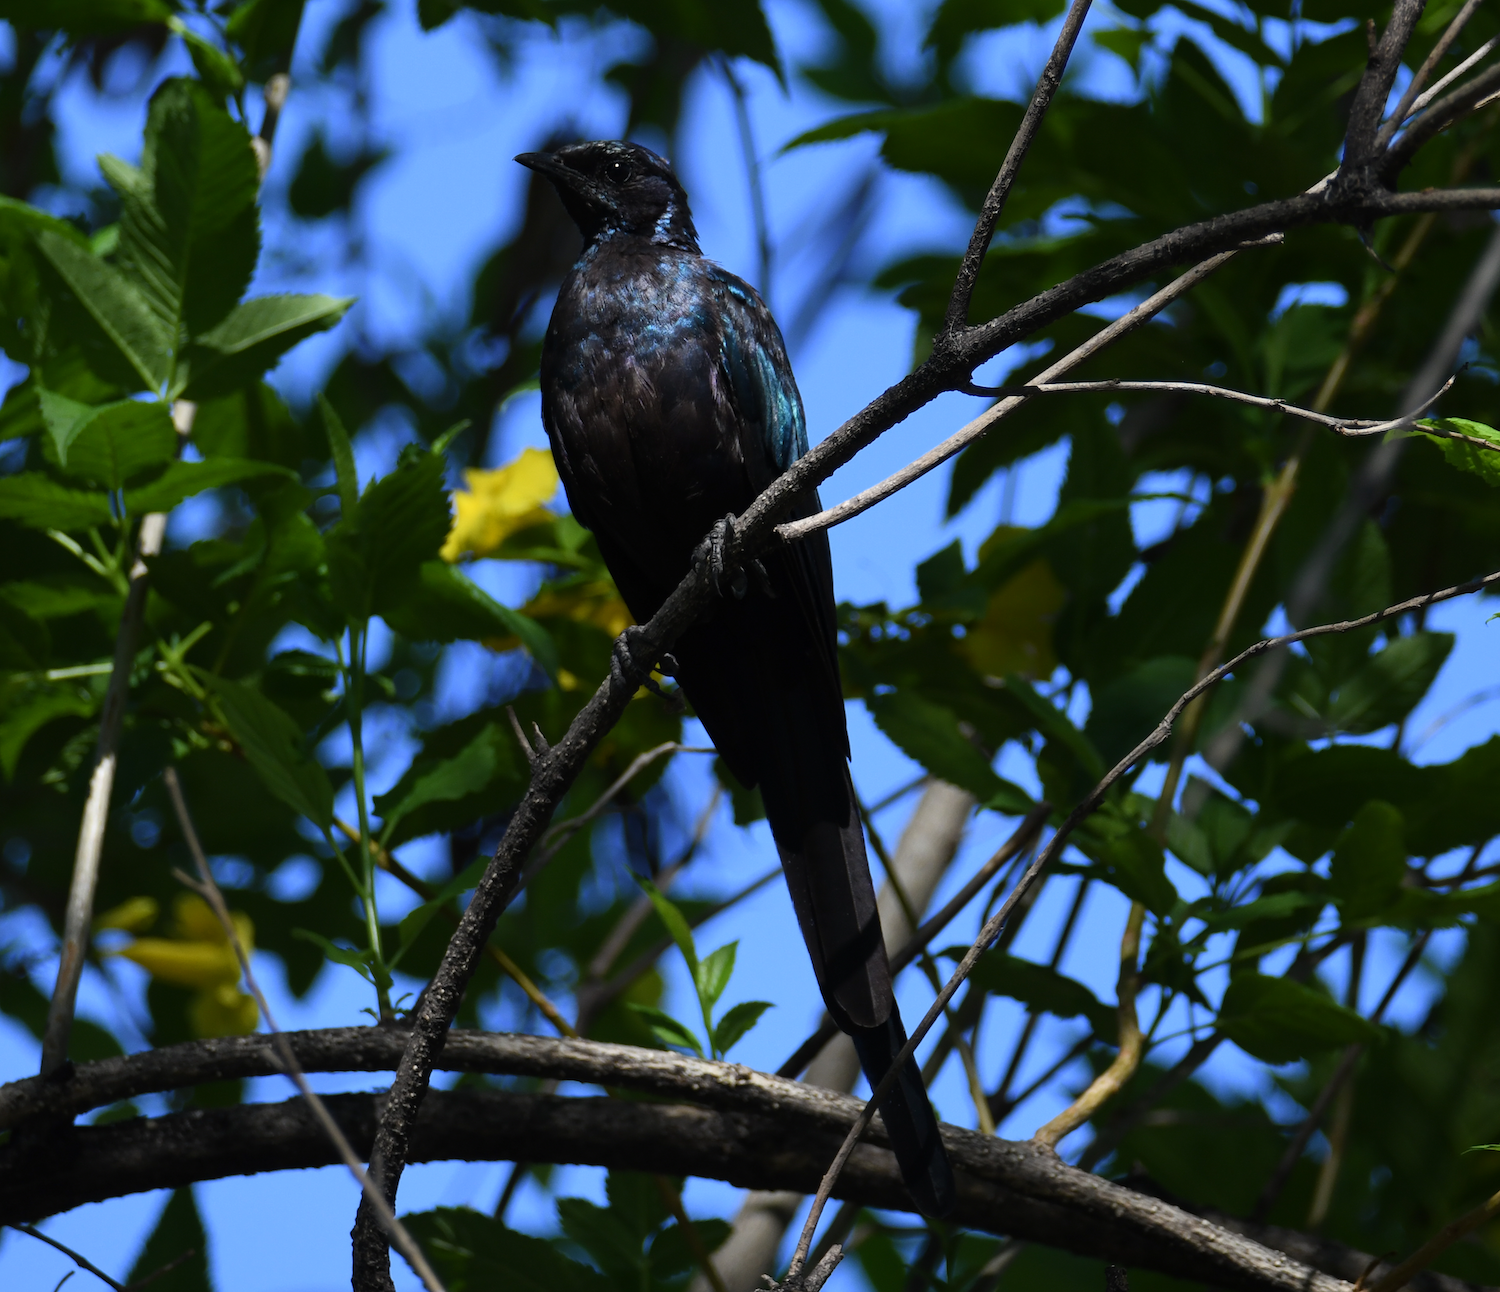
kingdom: Animalia
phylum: Chordata
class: Aves
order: Passeriformes
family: Sturnidae
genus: Lamprotornis
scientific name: Lamprotornis mevesii
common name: Meves's starling
